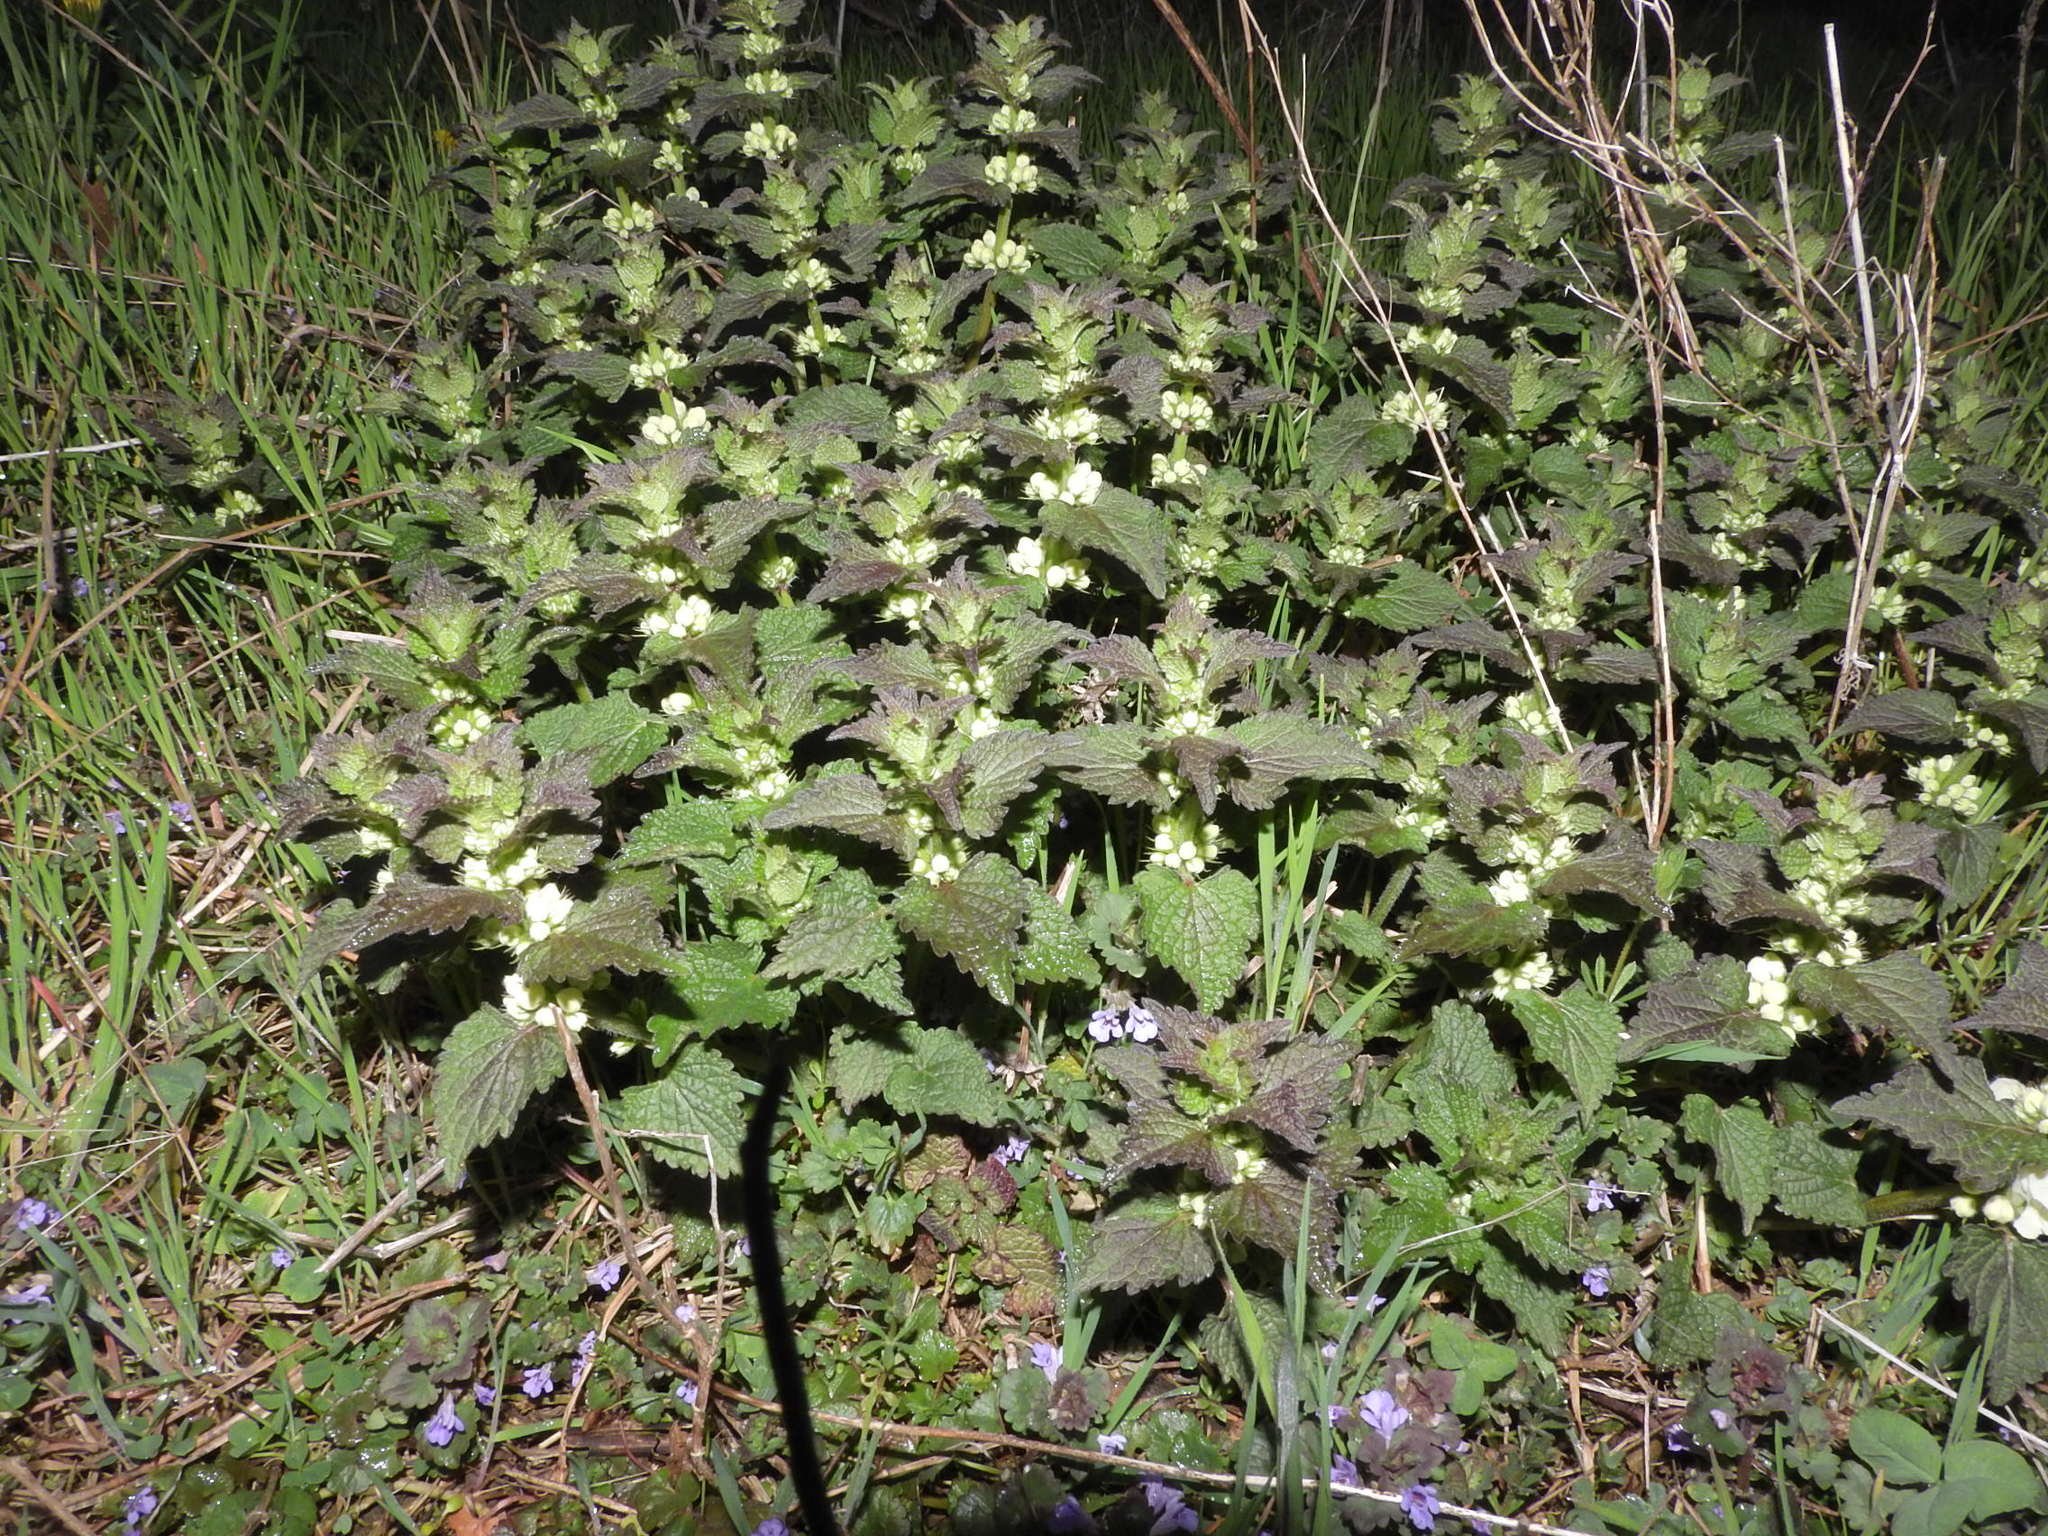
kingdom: Plantae
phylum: Tracheophyta
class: Magnoliopsida
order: Lamiales
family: Lamiaceae
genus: Lamium
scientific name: Lamium album
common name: White dead-nettle
